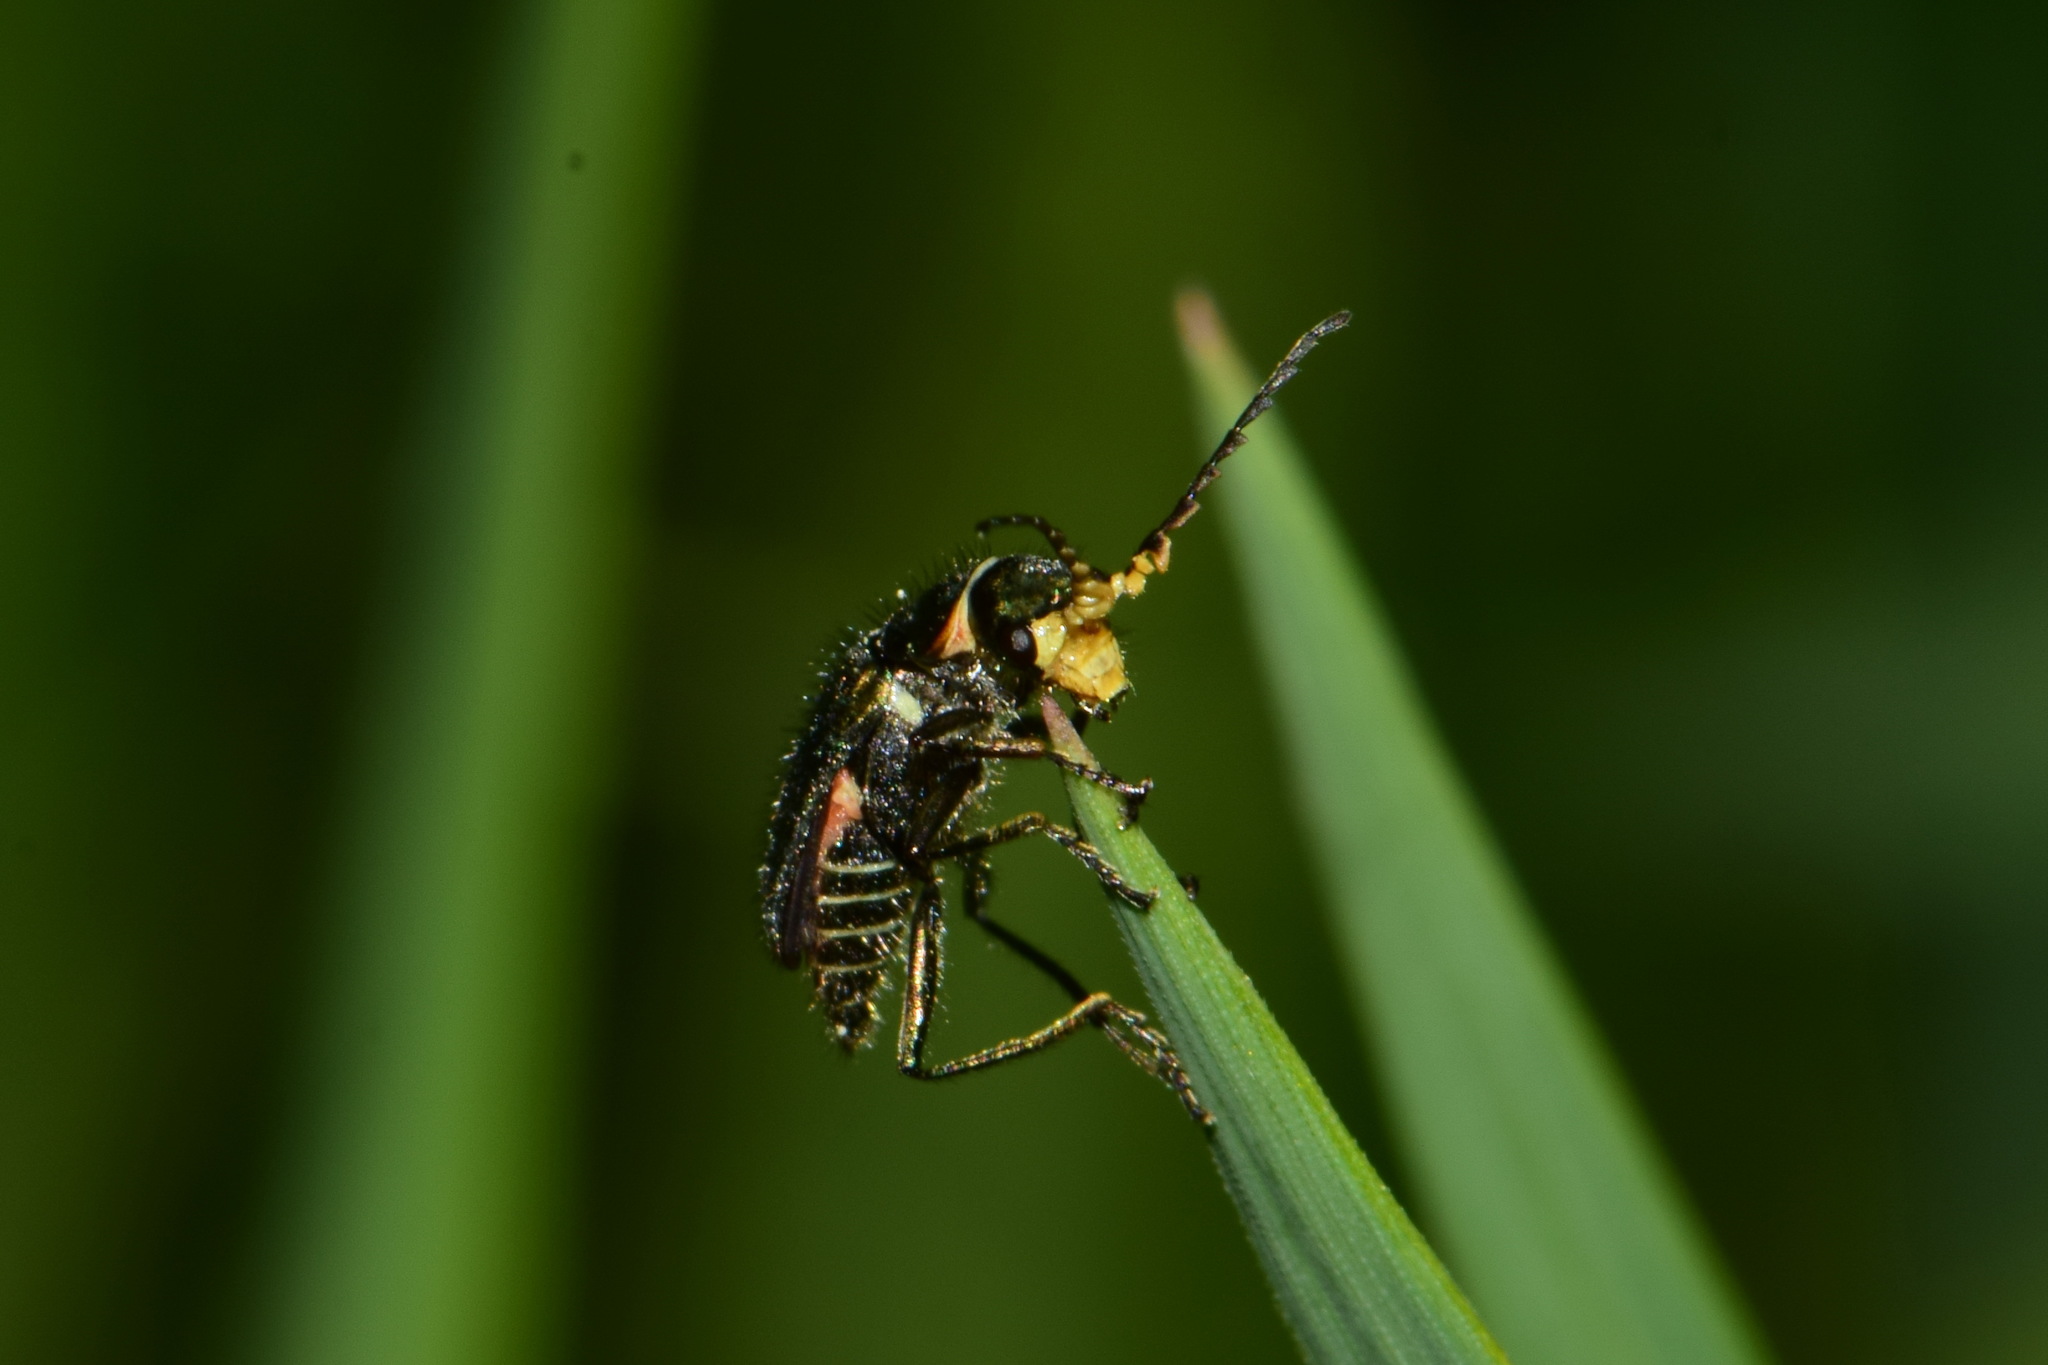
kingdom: Animalia
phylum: Arthropoda
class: Insecta
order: Coleoptera
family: Melyridae
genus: Malachius
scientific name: Malachius bipustulatus
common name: Malachite beetle
